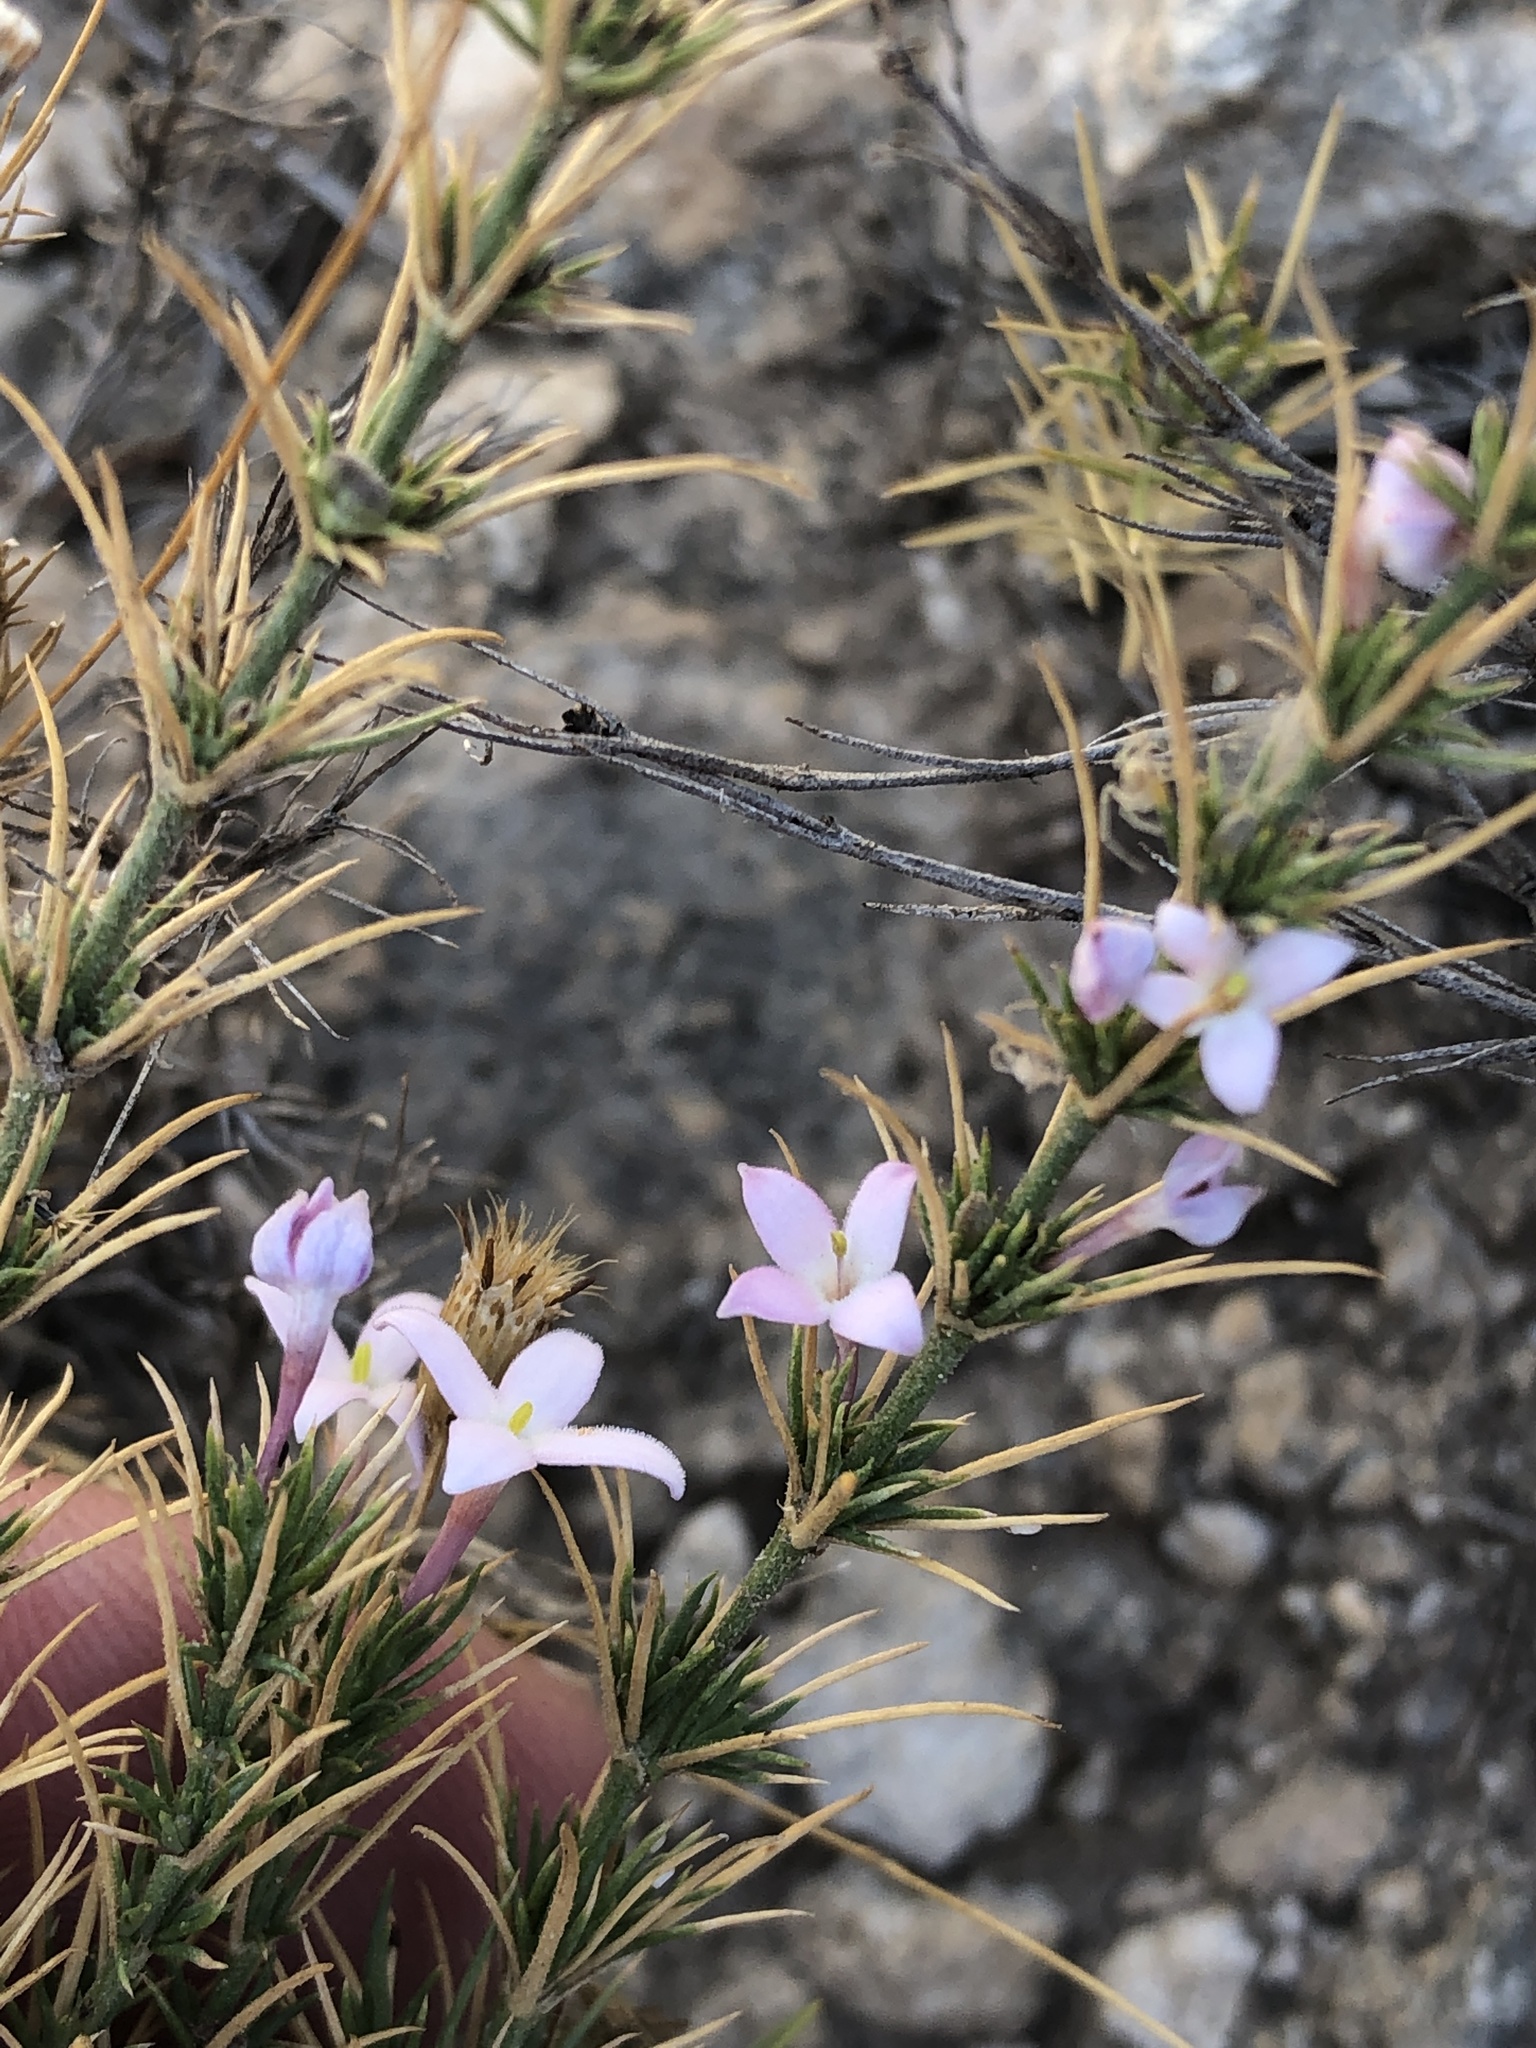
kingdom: Plantae
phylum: Tracheophyta
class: Magnoliopsida
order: Gentianales
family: Rubiaceae
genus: Houstonia
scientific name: Houstonia acerosa
